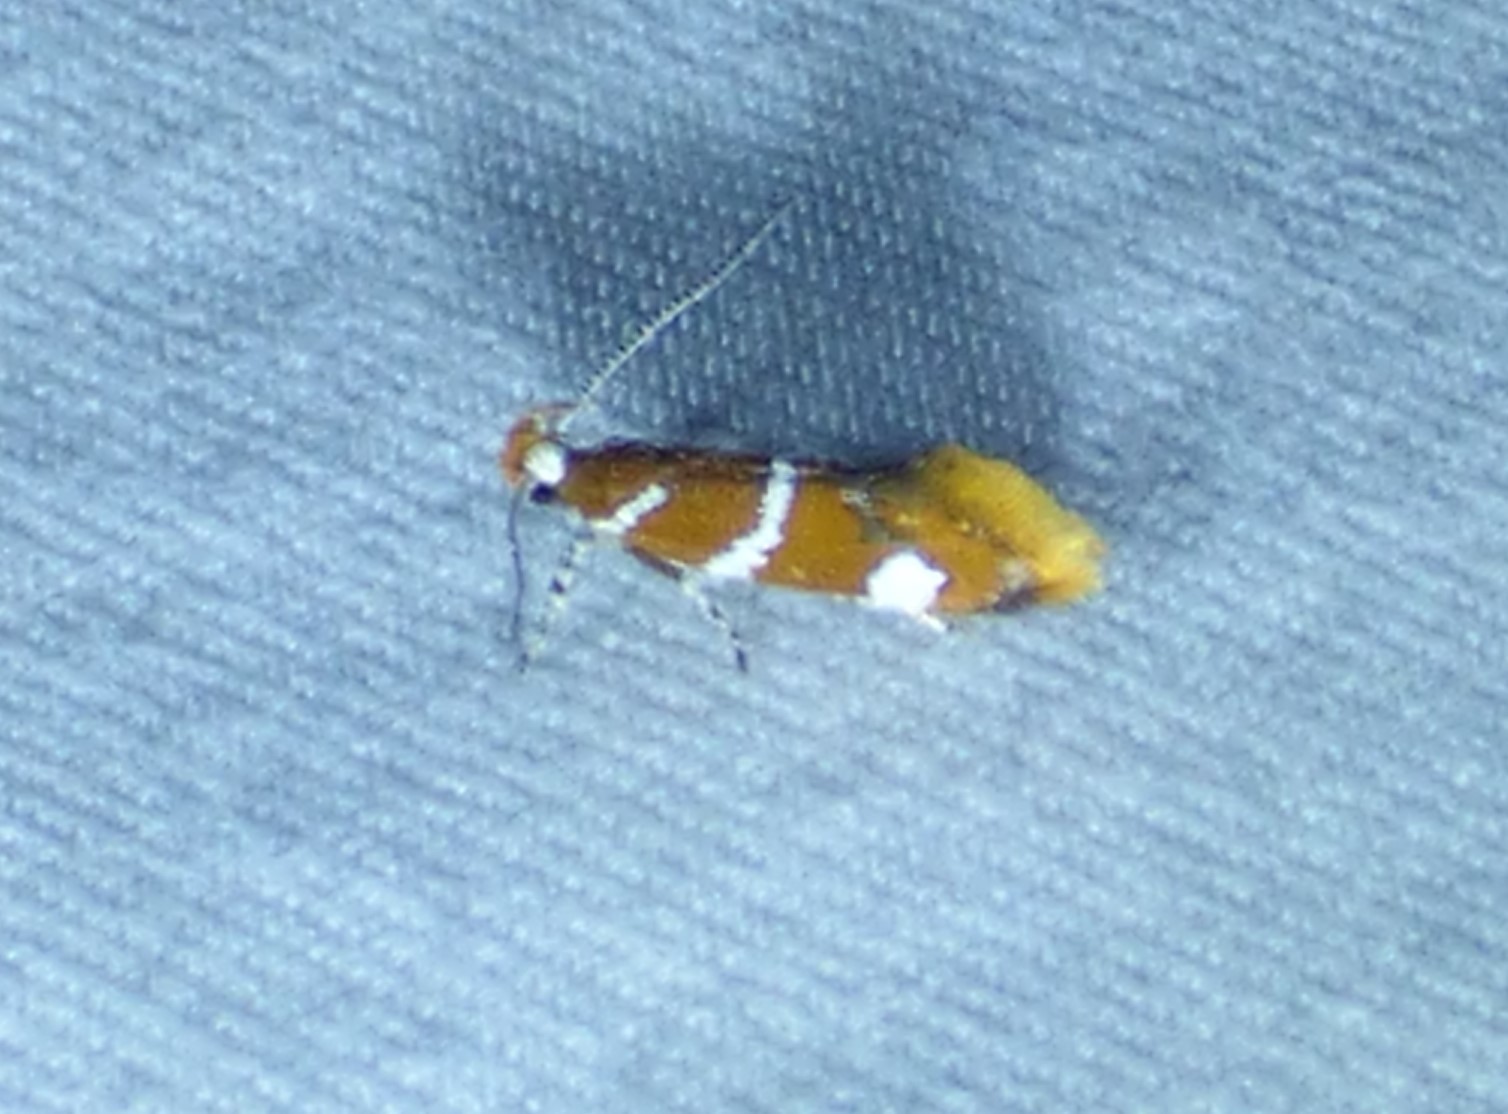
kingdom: Animalia
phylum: Arthropoda
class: Insecta
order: Lepidoptera
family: Oecophoridae
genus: Promalactis
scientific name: Promalactis suzukiella
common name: Moth
